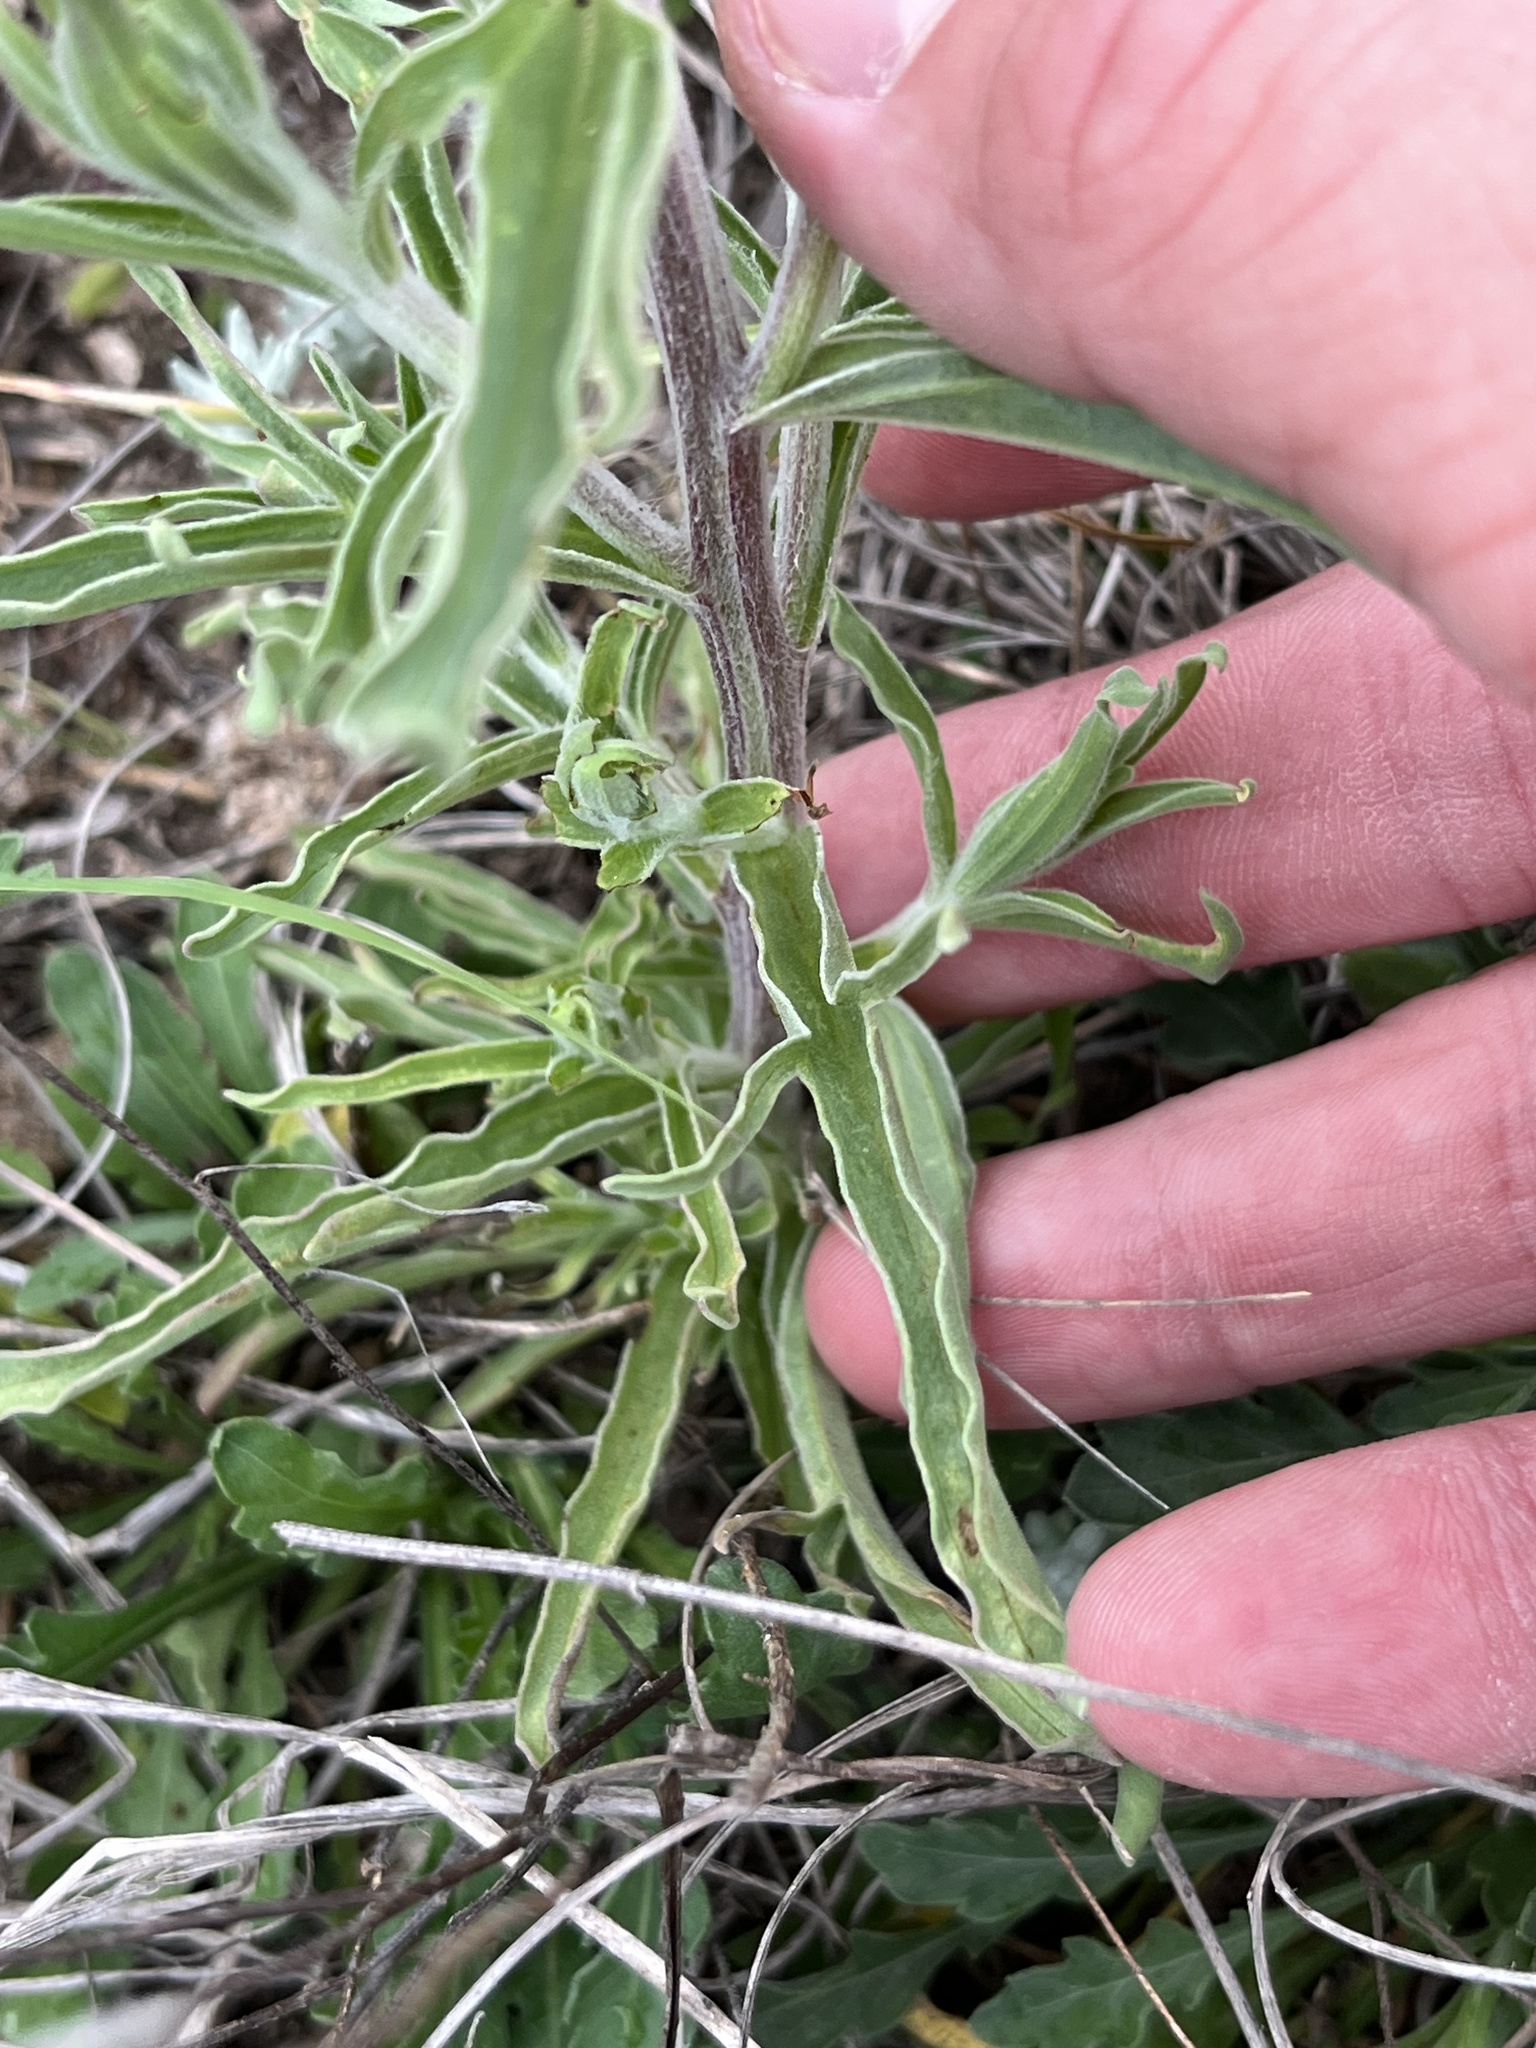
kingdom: Plantae
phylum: Tracheophyta
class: Magnoliopsida
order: Lamiales
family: Orobanchaceae
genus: Castilleja
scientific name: Castilleja lindheimeri
